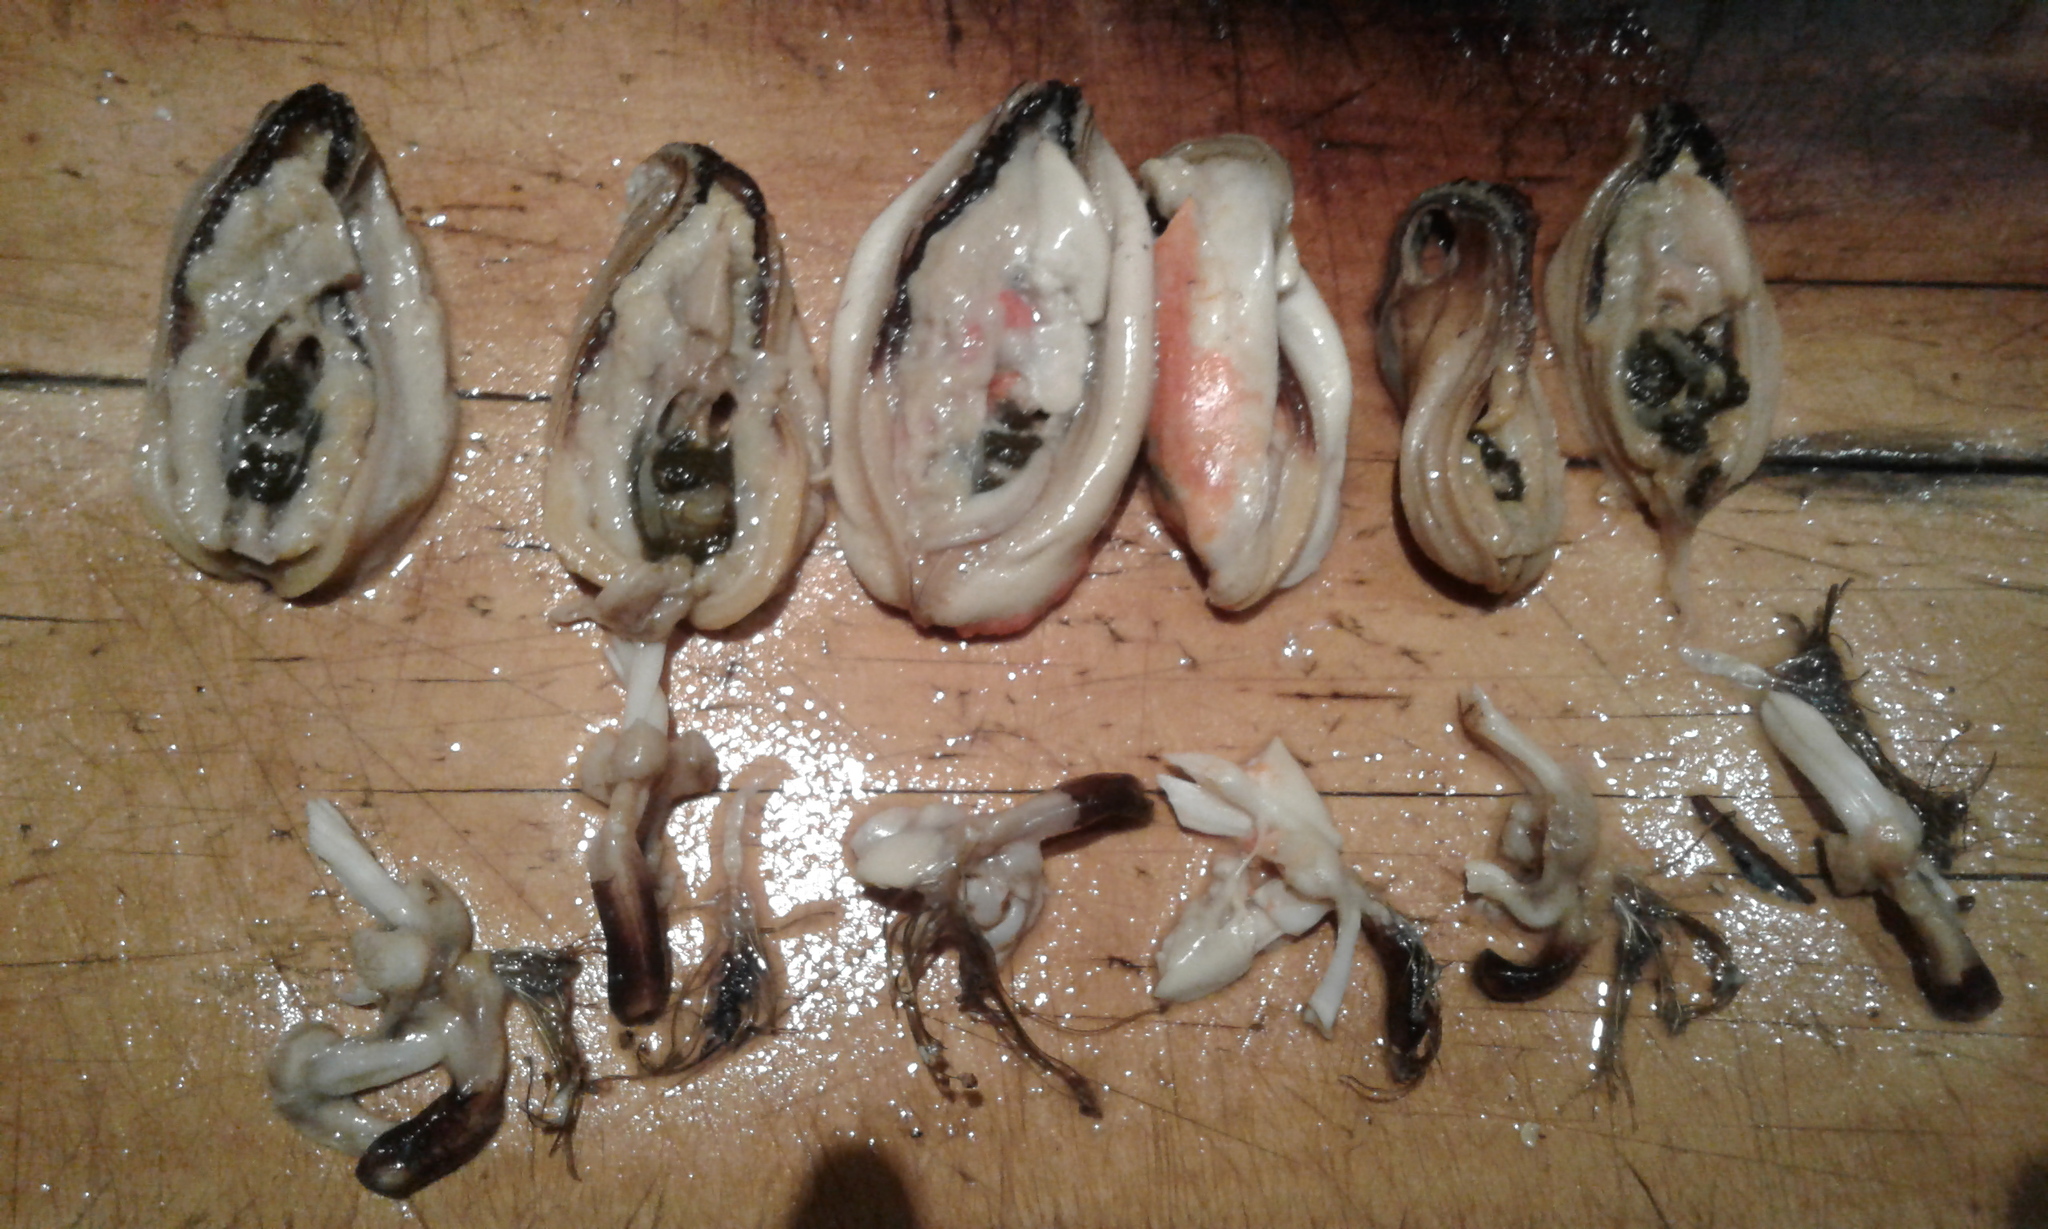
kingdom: Animalia
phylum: Mollusca
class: Bivalvia
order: Mytilida
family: Mytilidae
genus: Perna
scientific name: Perna canaliculus
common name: New zealand greenshelltm
